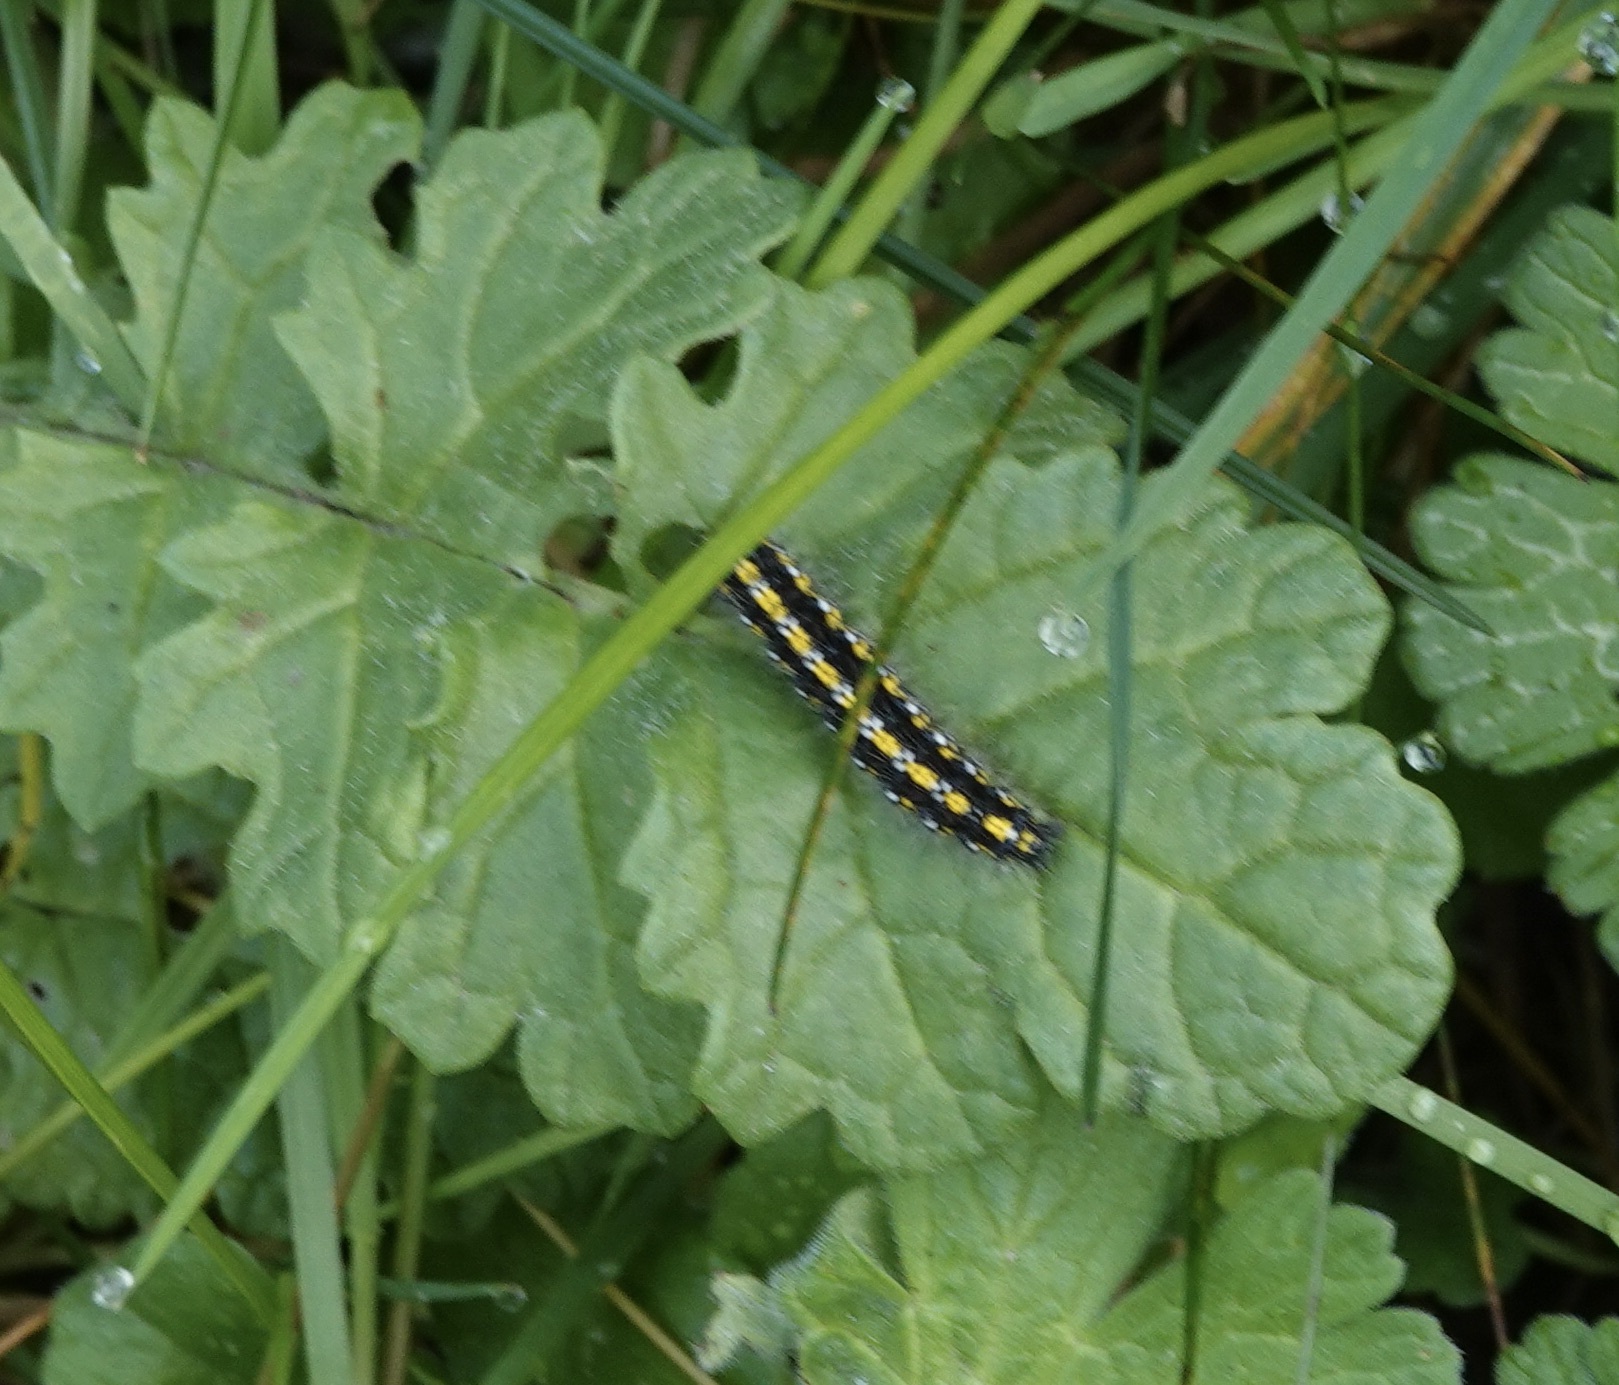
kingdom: Animalia
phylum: Arthropoda
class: Insecta
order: Lepidoptera
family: Erebidae
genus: Callimorpha
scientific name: Callimorpha dominula
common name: Scarlet tiger
